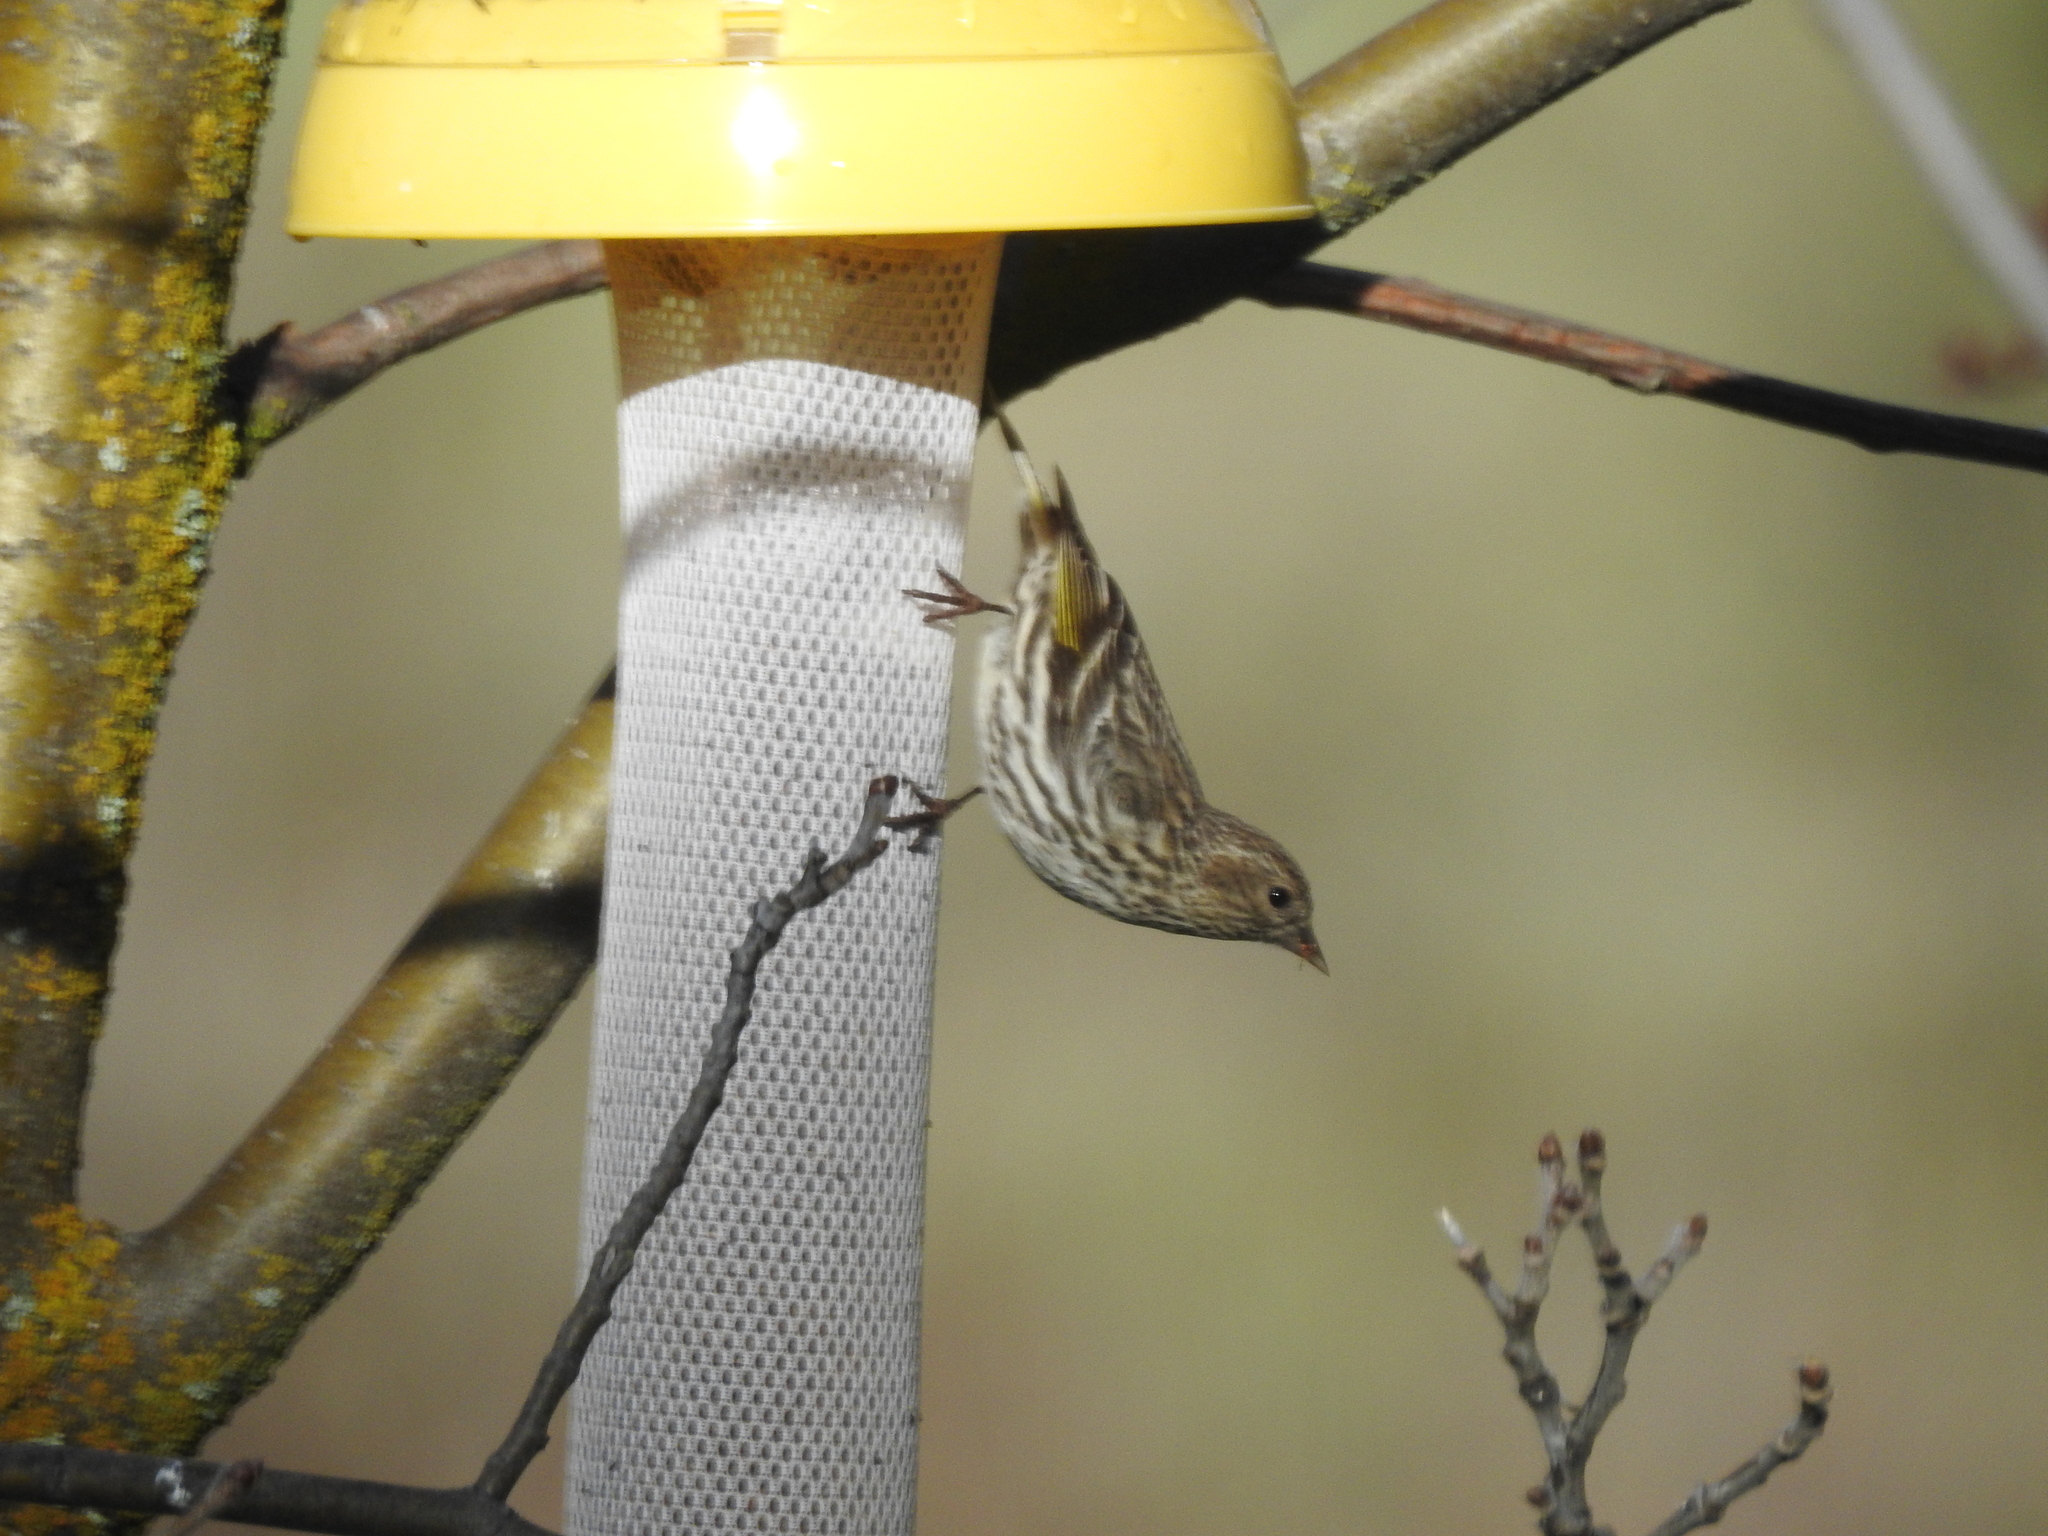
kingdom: Animalia
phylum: Chordata
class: Aves
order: Passeriformes
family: Fringillidae
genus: Spinus
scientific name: Spinus pinus
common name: Pine siskin
